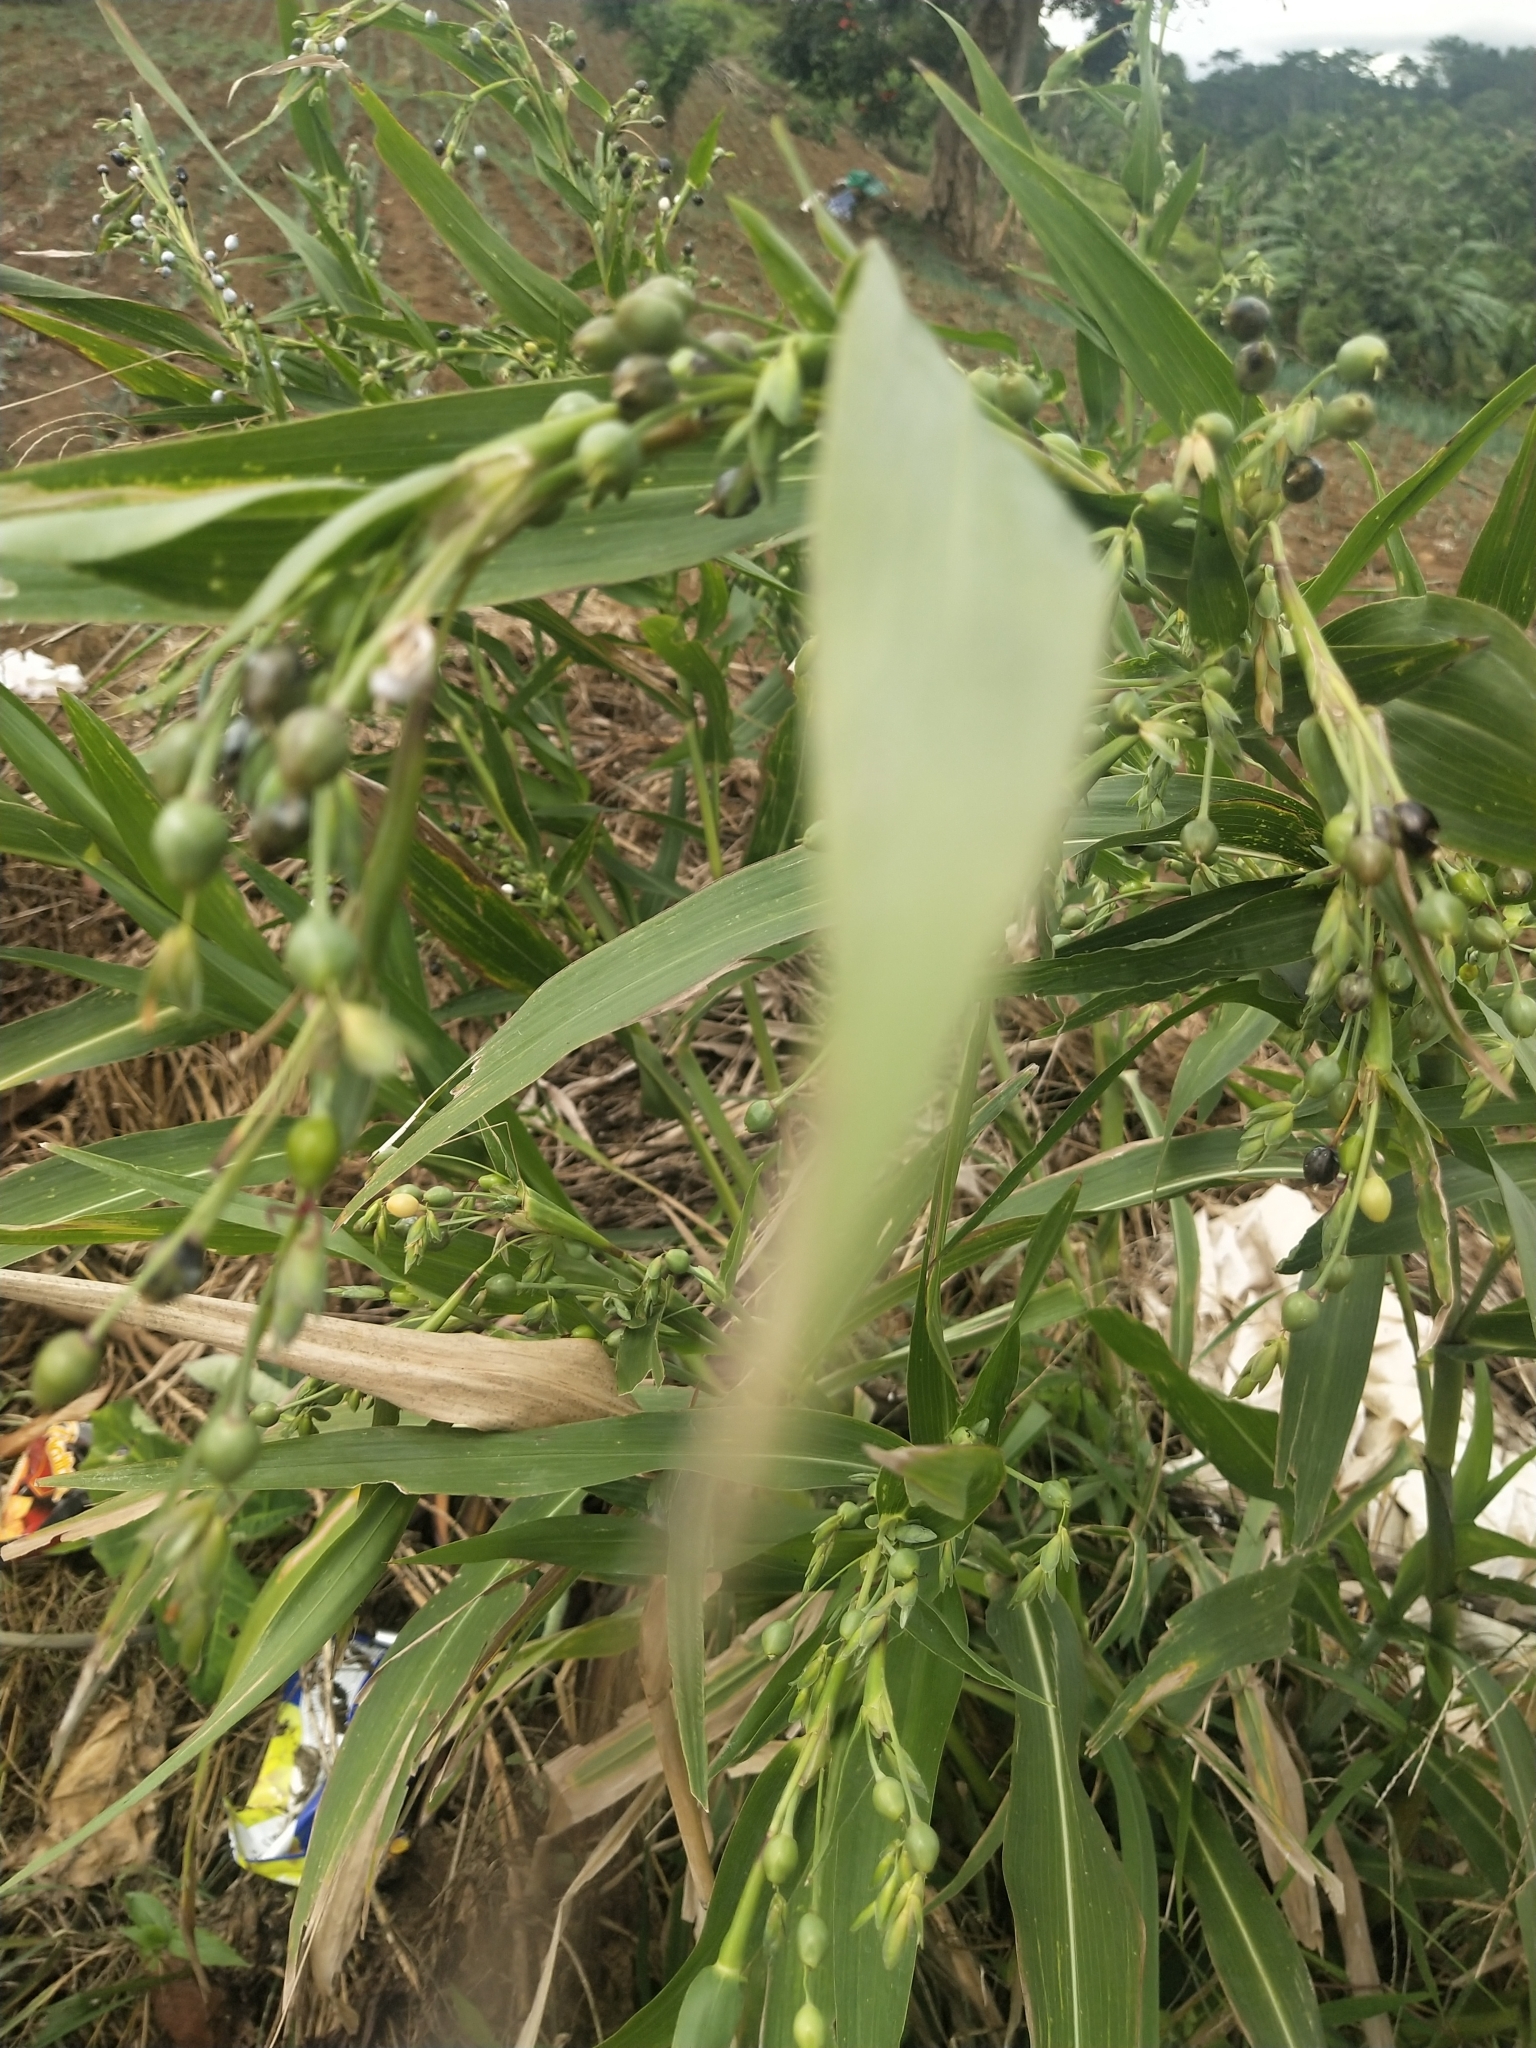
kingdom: Plantae
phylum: Tracheophyta
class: Liliopsida
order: Poales
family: Poaceae
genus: Coix
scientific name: Coix lacryma-jobi
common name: Job's tears
